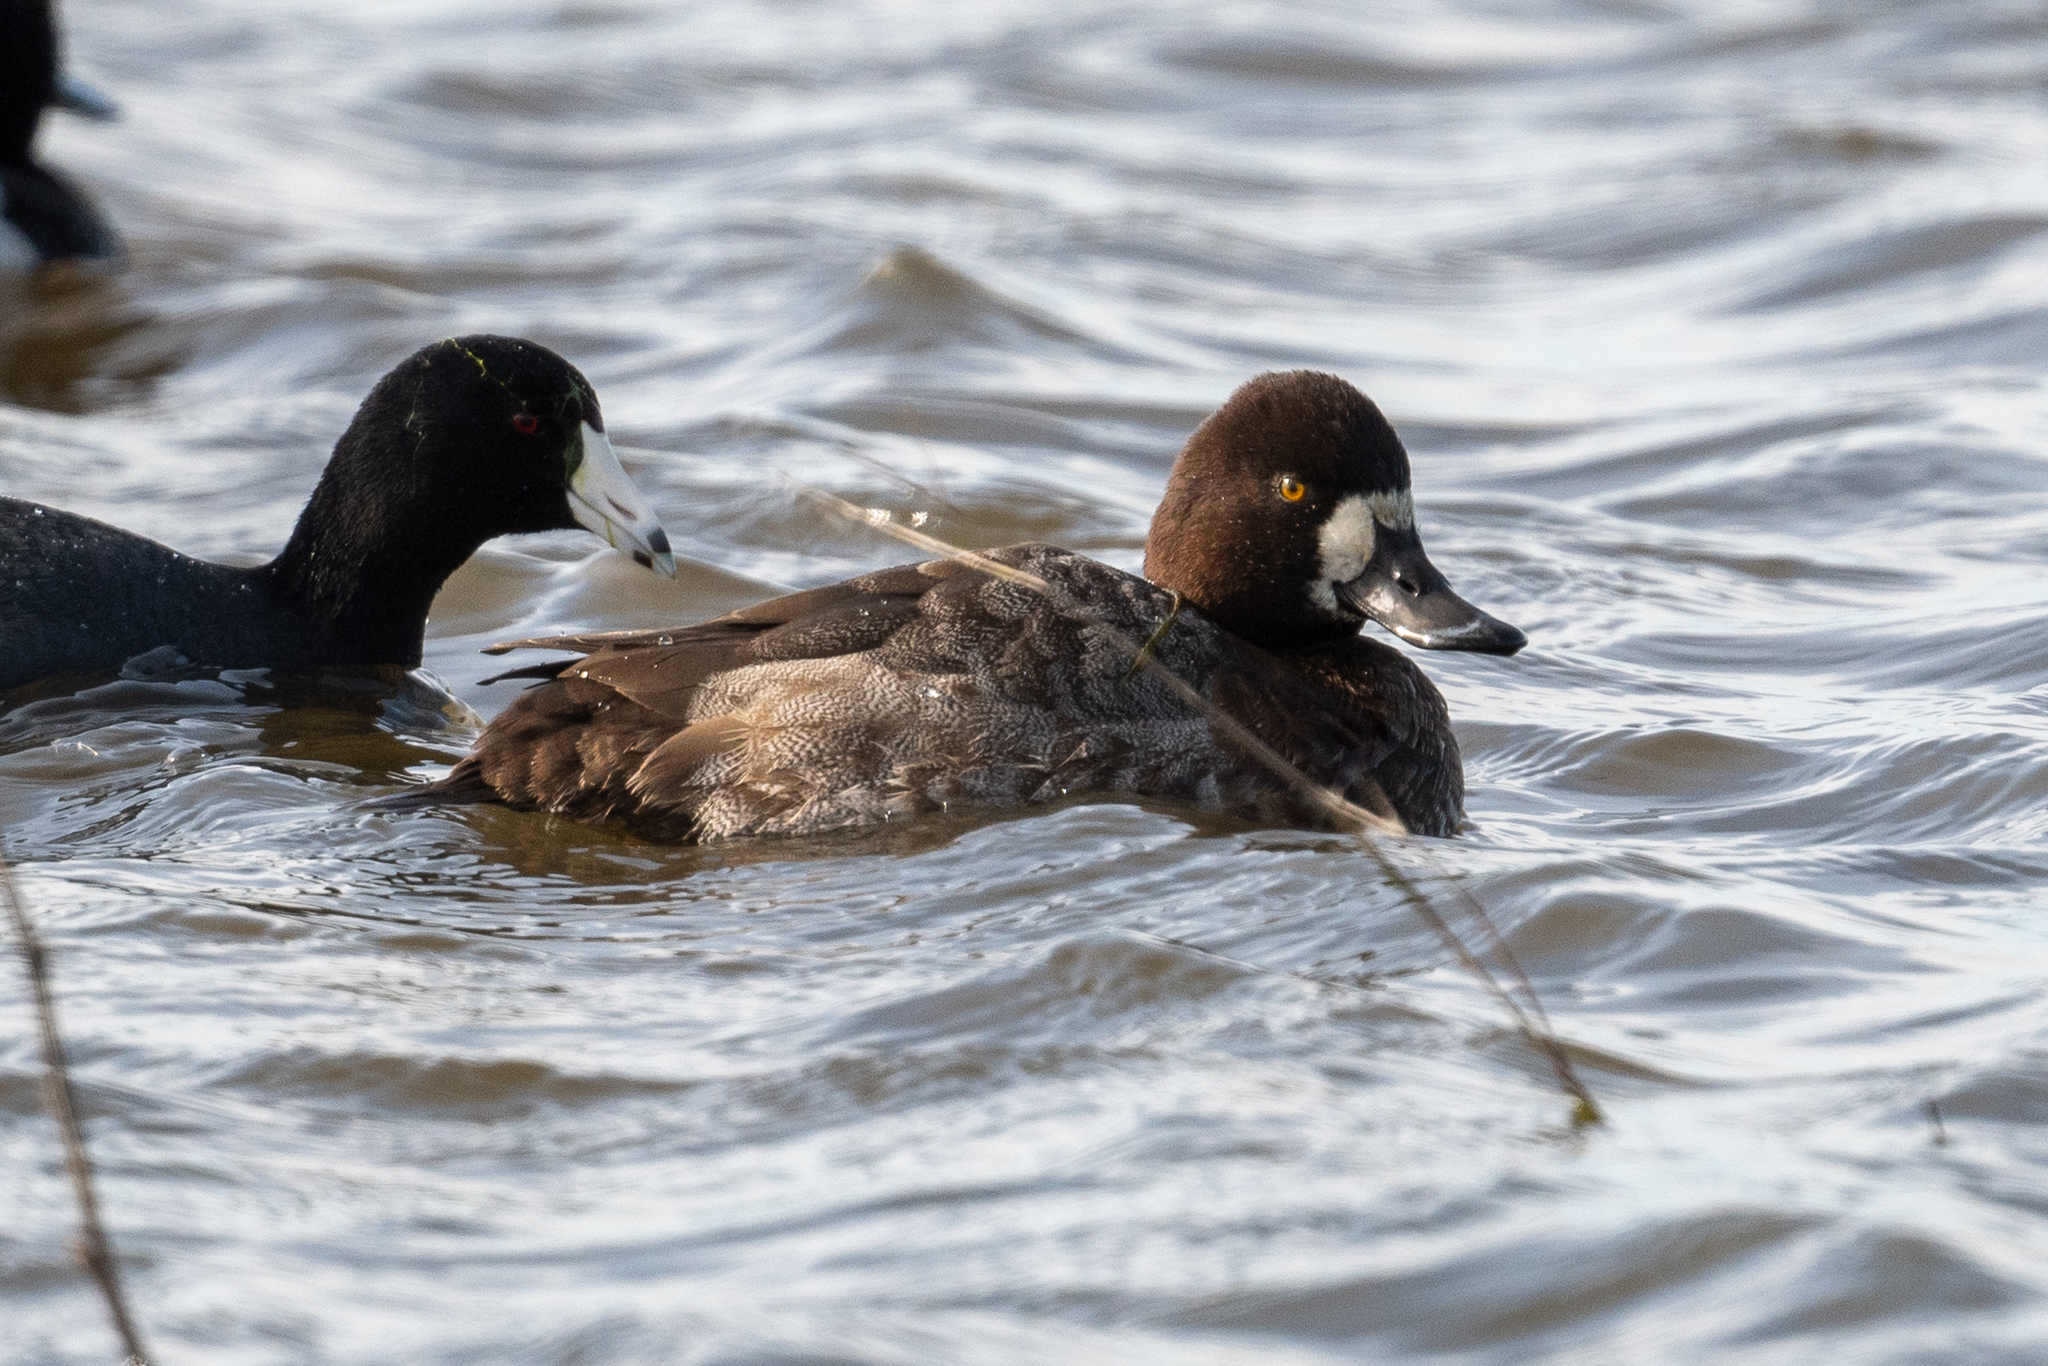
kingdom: Animalia
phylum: Chordata
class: Aves
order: Anseriformes
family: Anatidae
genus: Aythya
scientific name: Aythya affinis
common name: Lesser scaup
